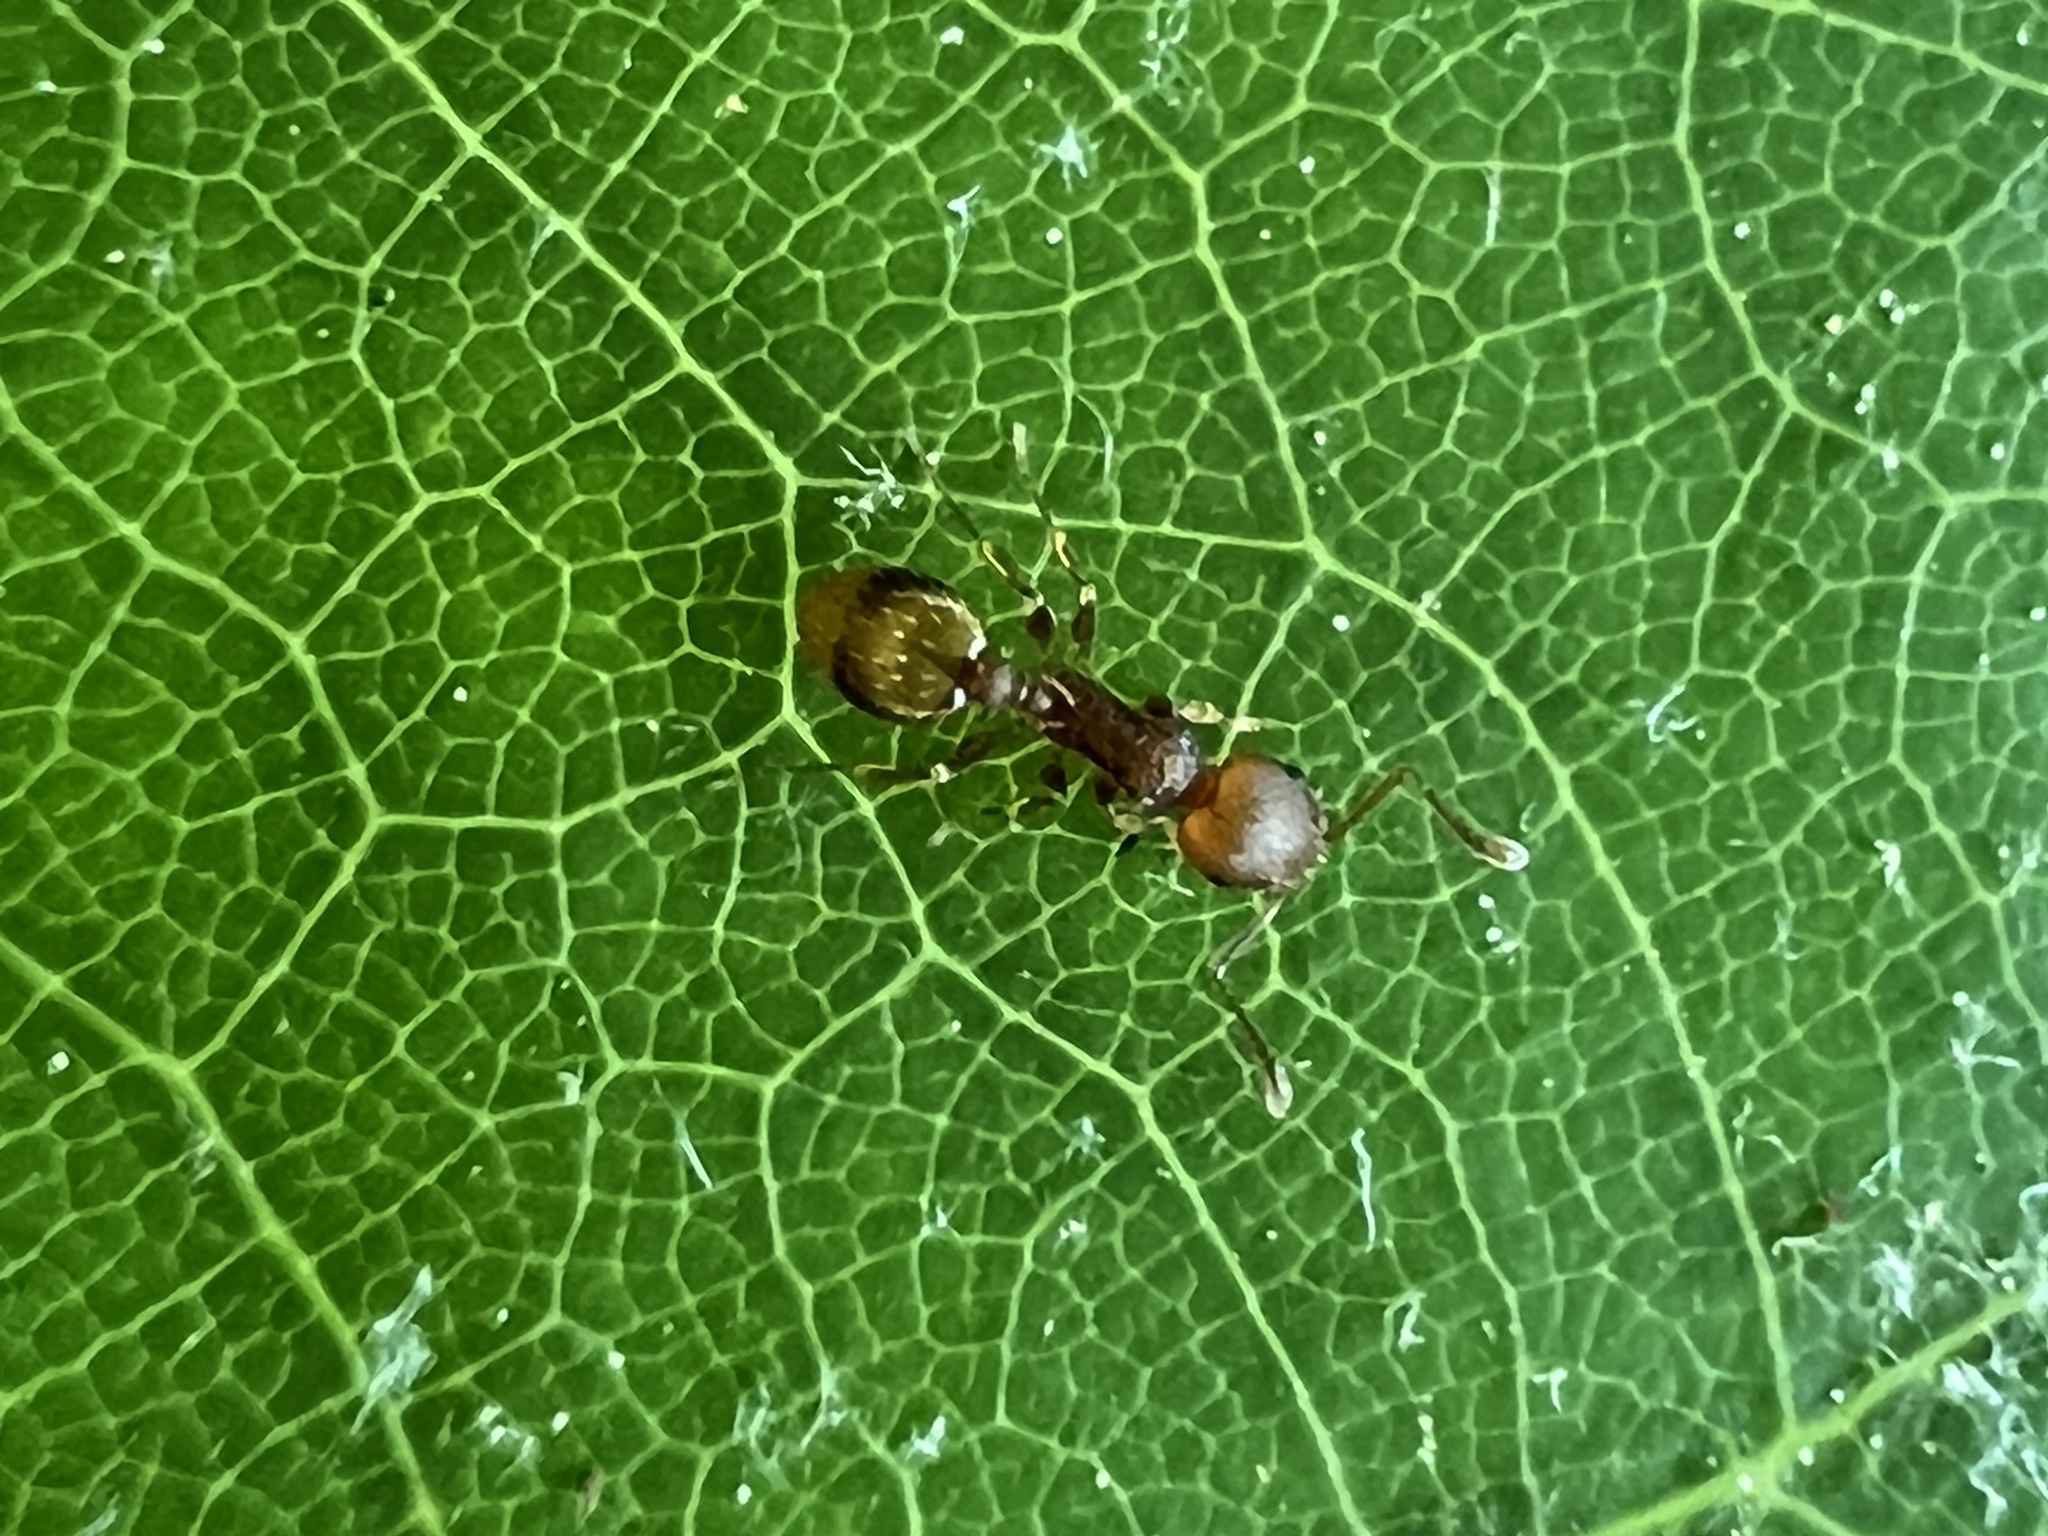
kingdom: Animalia
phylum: Arthropoda
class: Insecta
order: Hymenoptera
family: Formicidae
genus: Temnothorax
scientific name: Temnothorax curvispinosus
